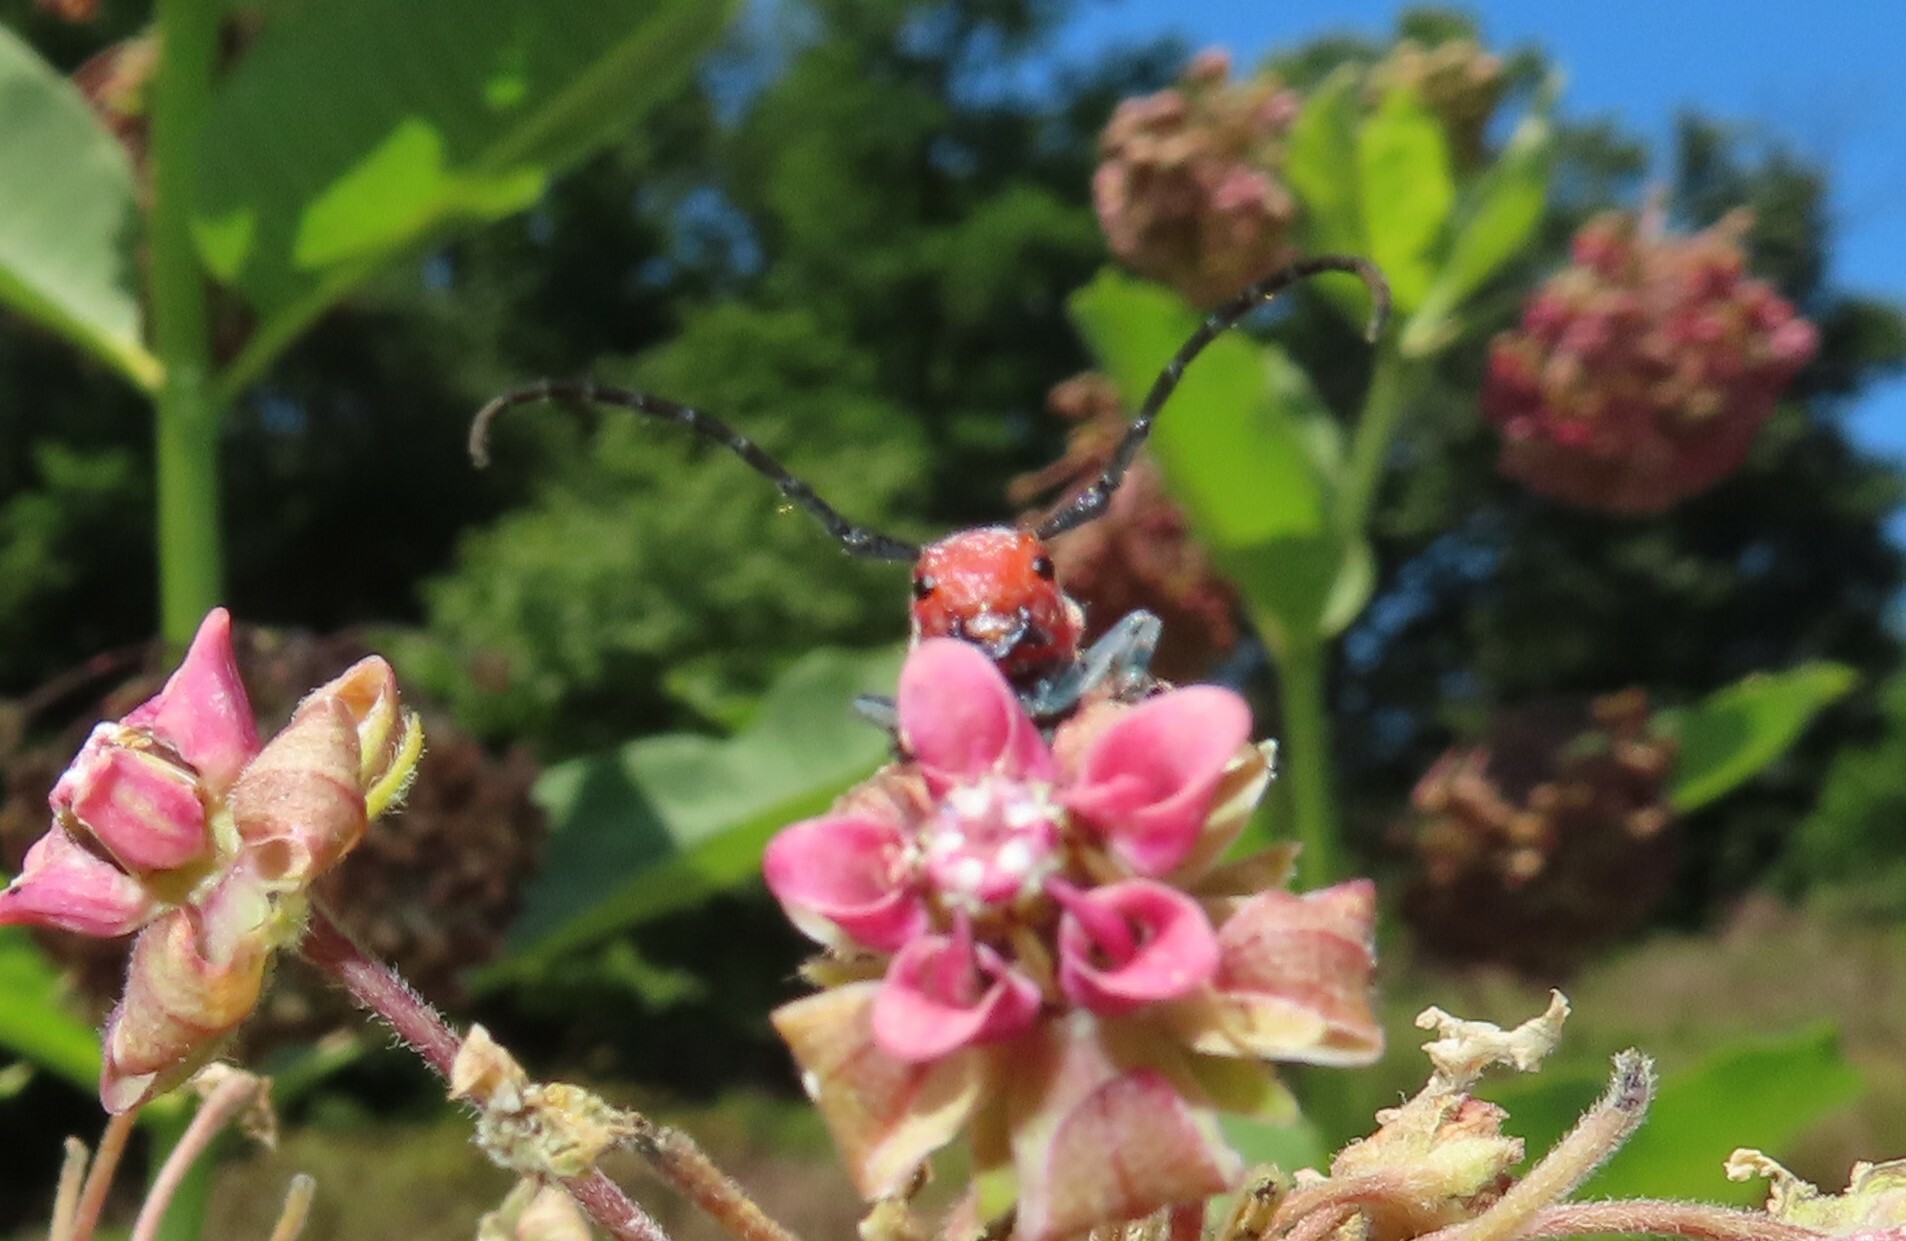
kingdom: Animalia
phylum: Arthropoda
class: Insecta
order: Coleoptera
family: Cerambycidae
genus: Tetraopes
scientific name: Tetraopes tetrophthalmus
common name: Red milkweed beetle
